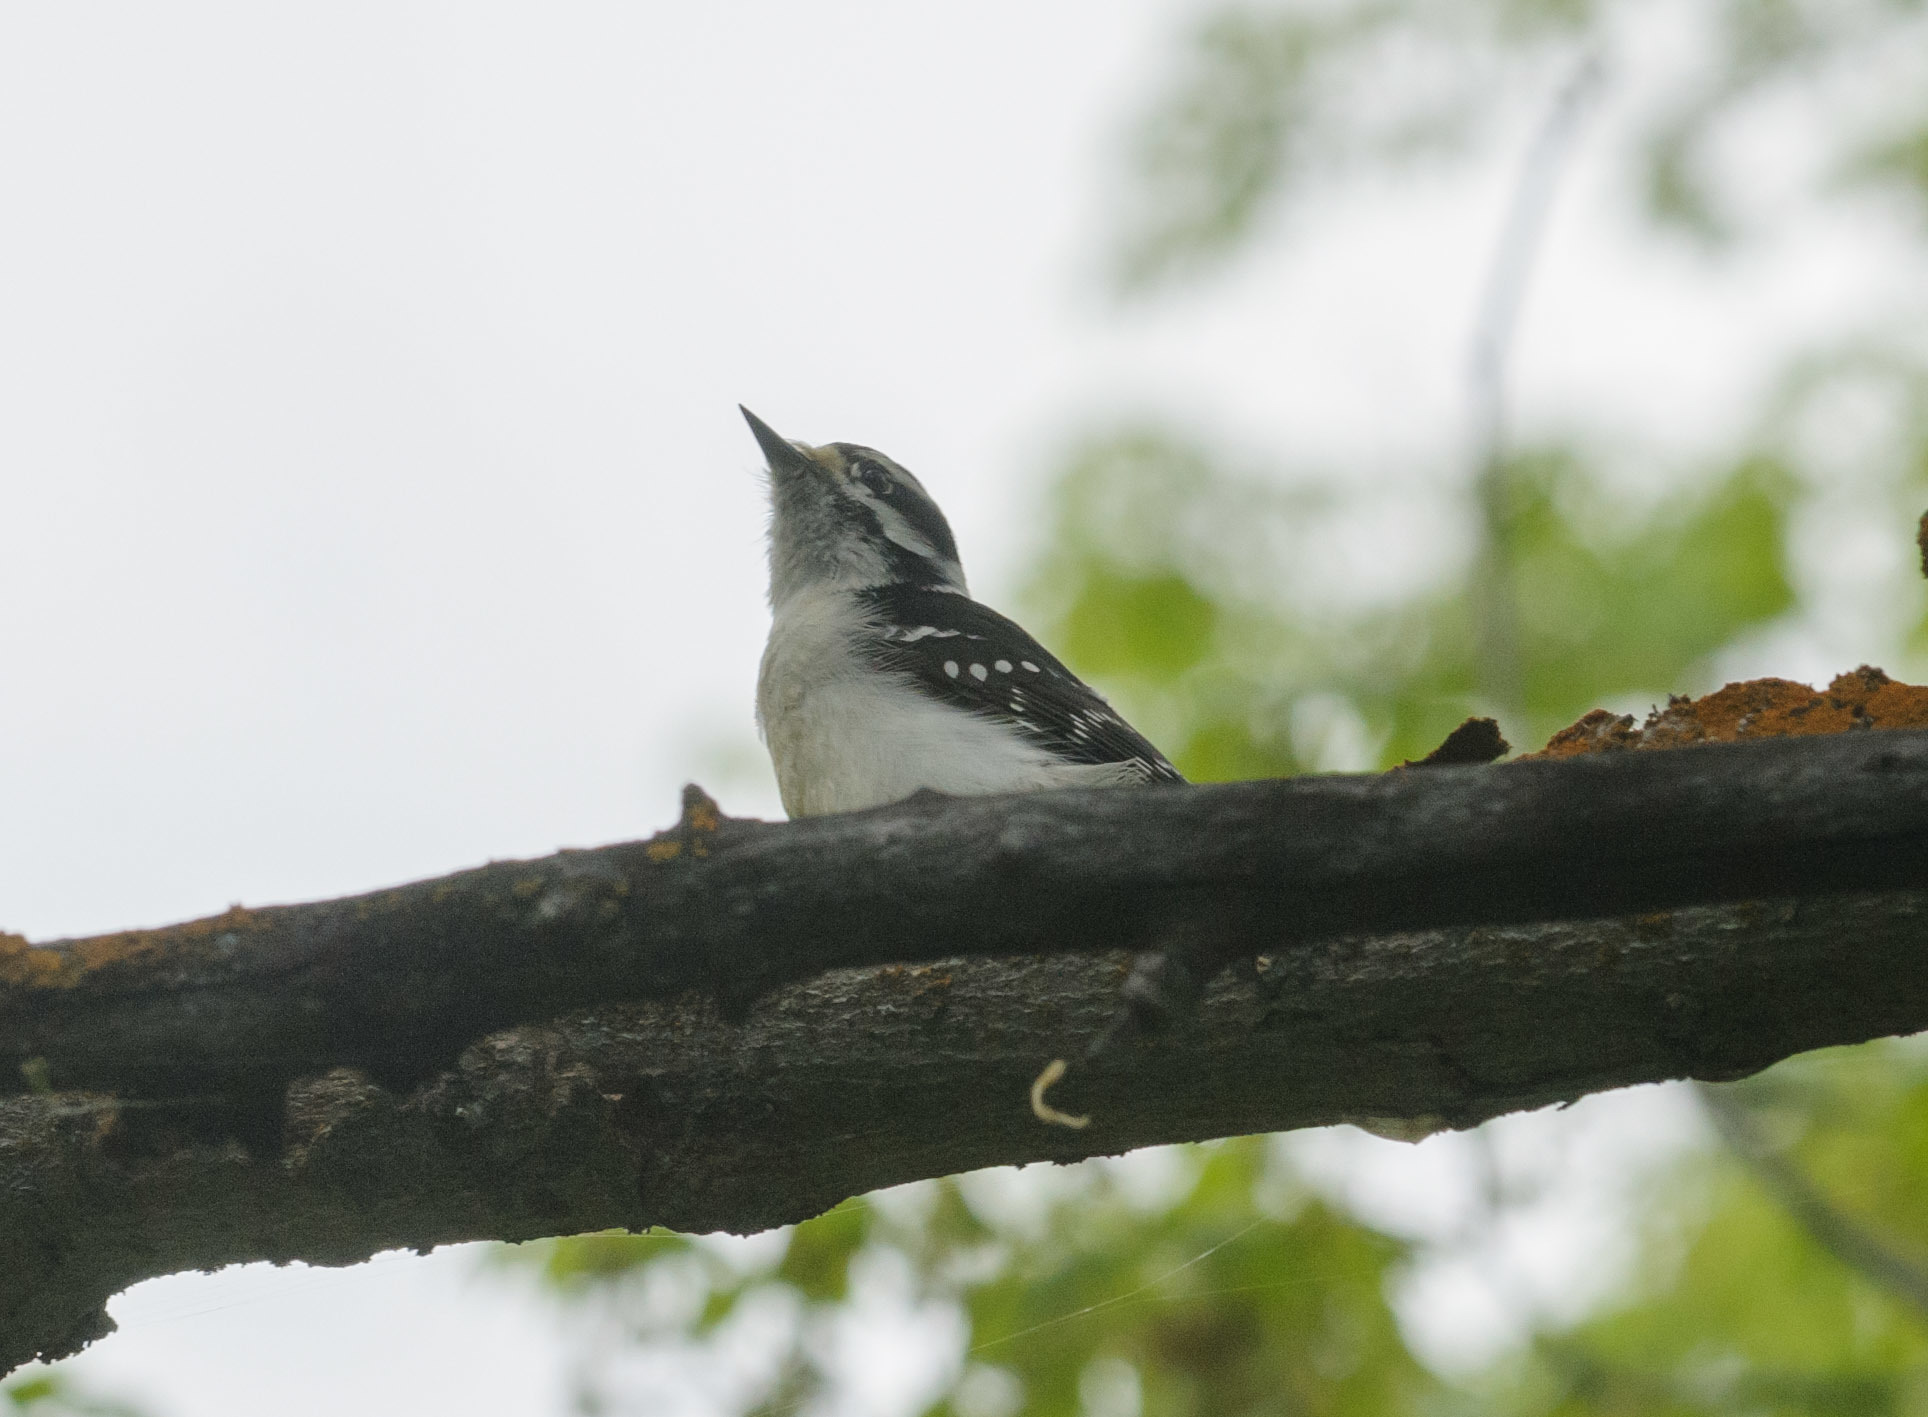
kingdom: Animalia
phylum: Chordata
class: Aves
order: Piciformes
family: Picidae
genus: Dryobates
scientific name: Dryobates pubescens
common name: Downy woodpecker
